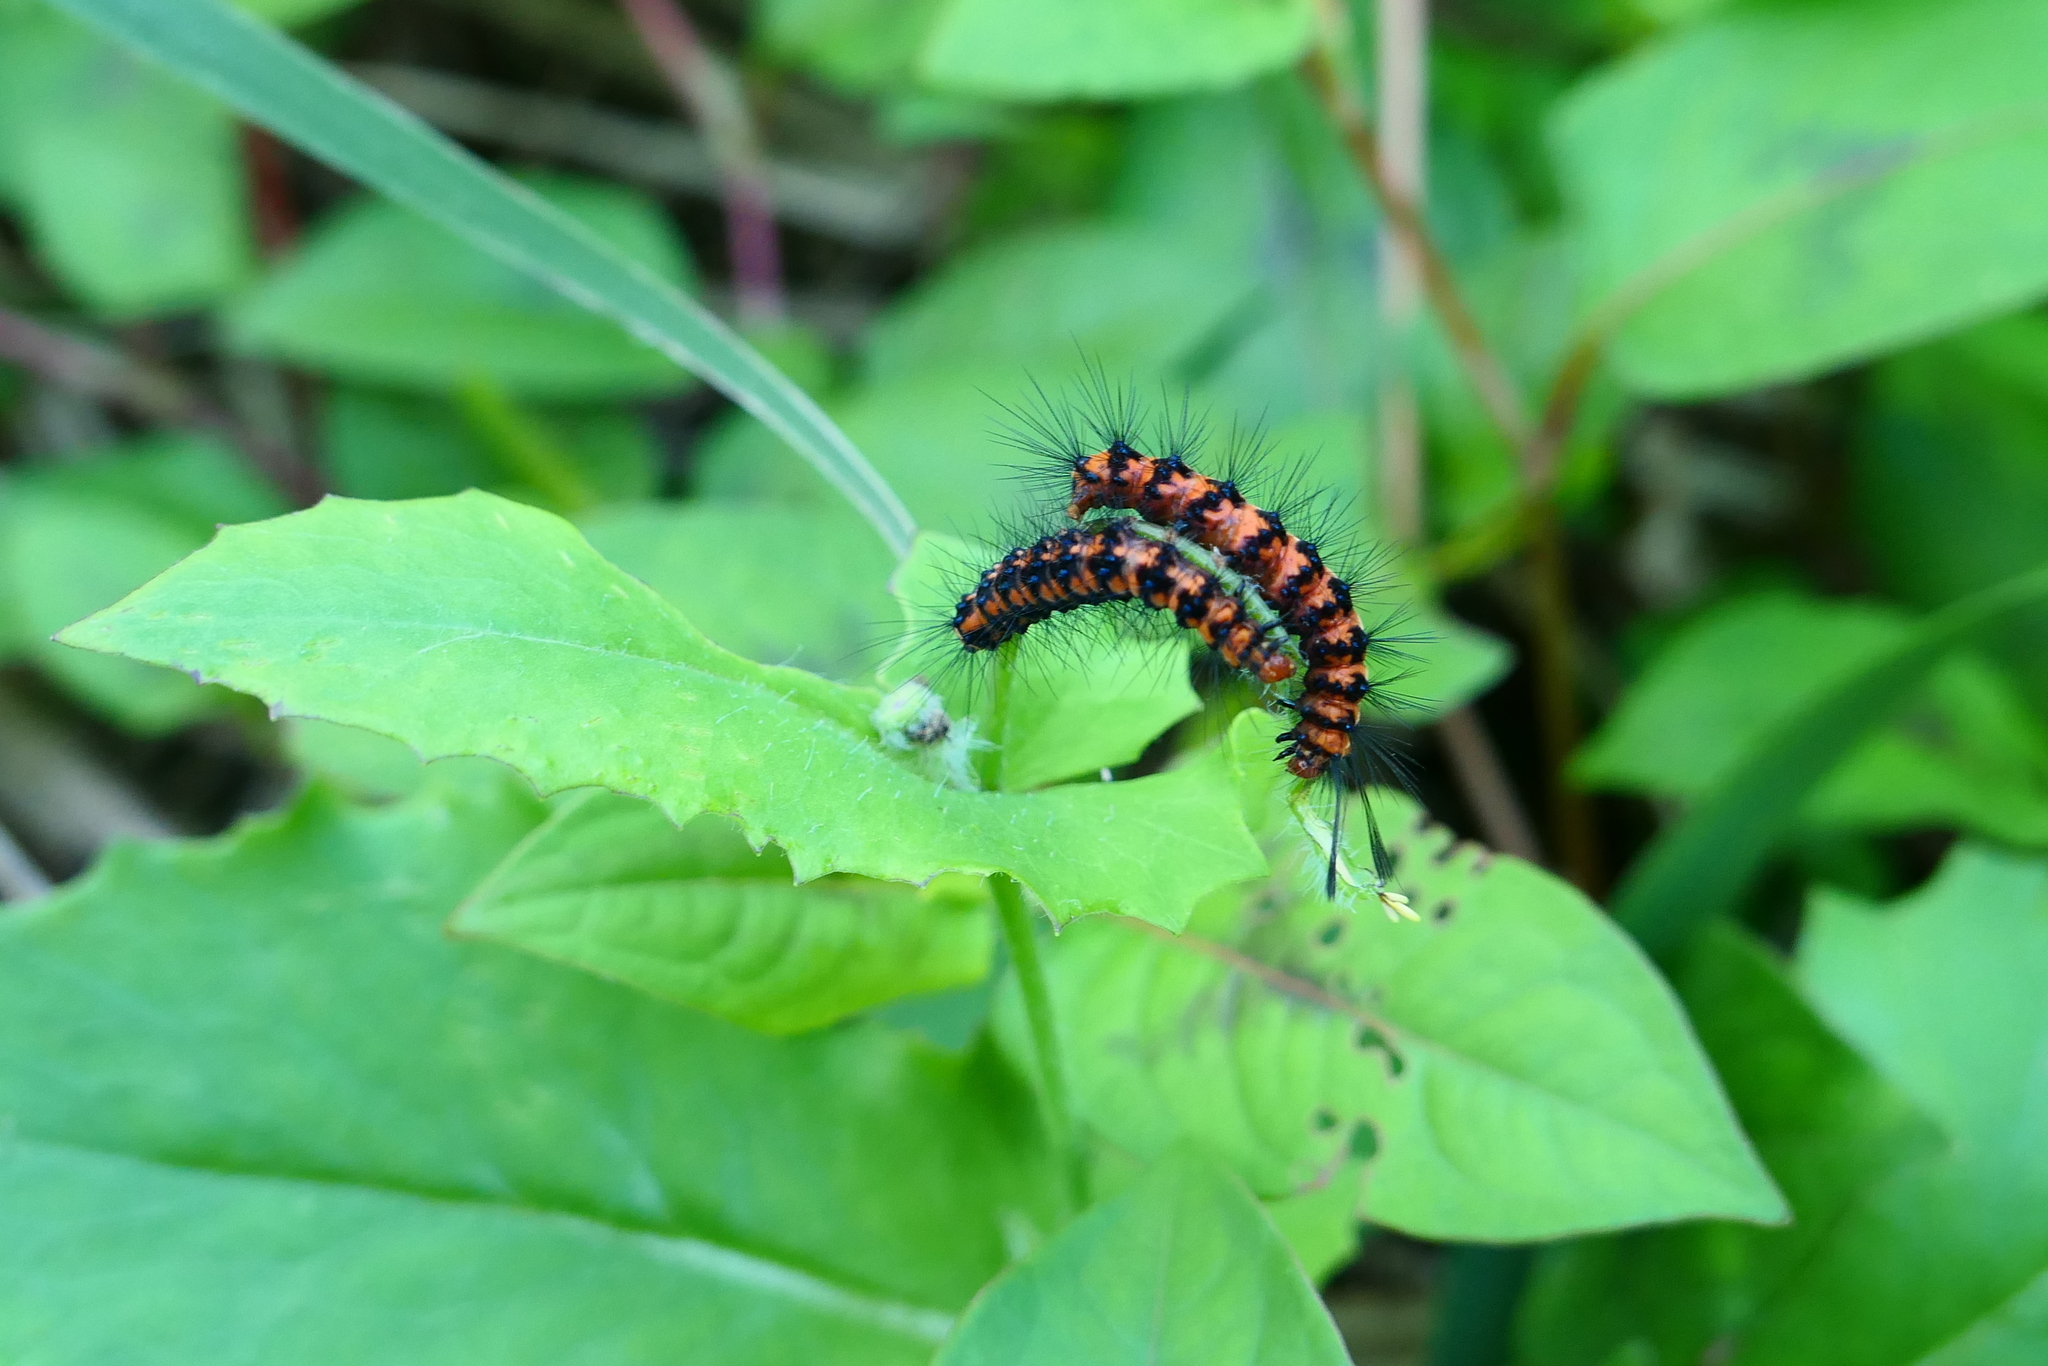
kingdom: Animalia
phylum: Arthropoda
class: Insecta
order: Lepidoptera
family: Erebidae
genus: Nyctemera
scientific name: Nyctemera lacticinia
